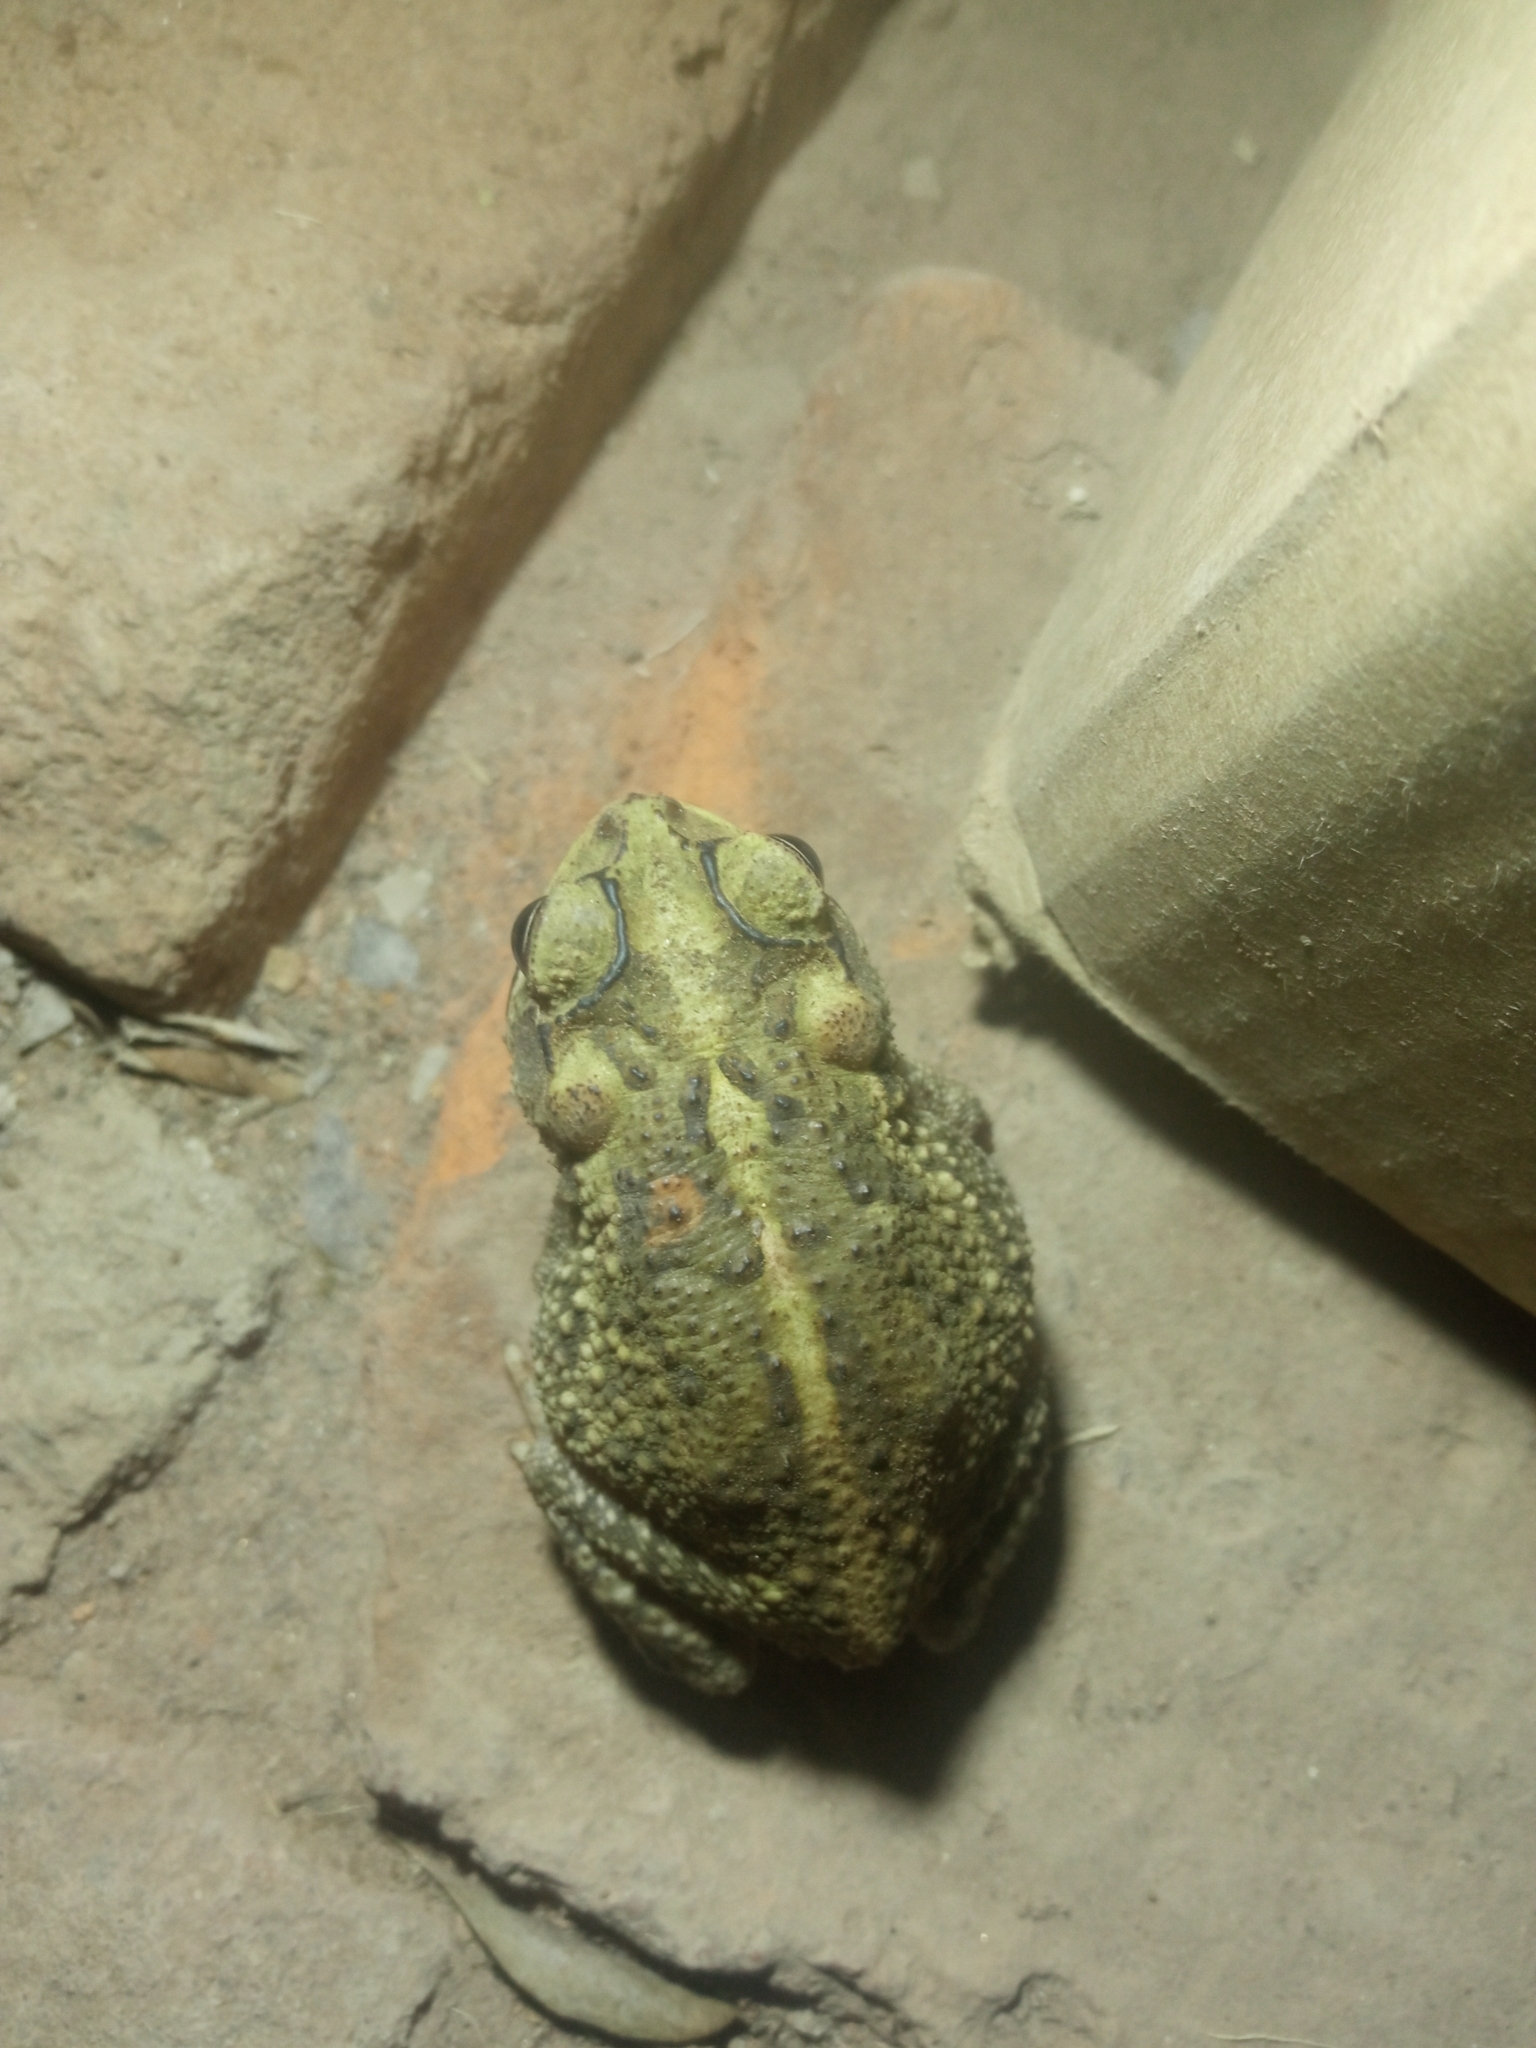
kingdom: Animalia
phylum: Chordata
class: Amphibia
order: Anura
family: Bufonidae
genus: Incilius
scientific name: Incilius mazatlanensis
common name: Sinaloa toad
